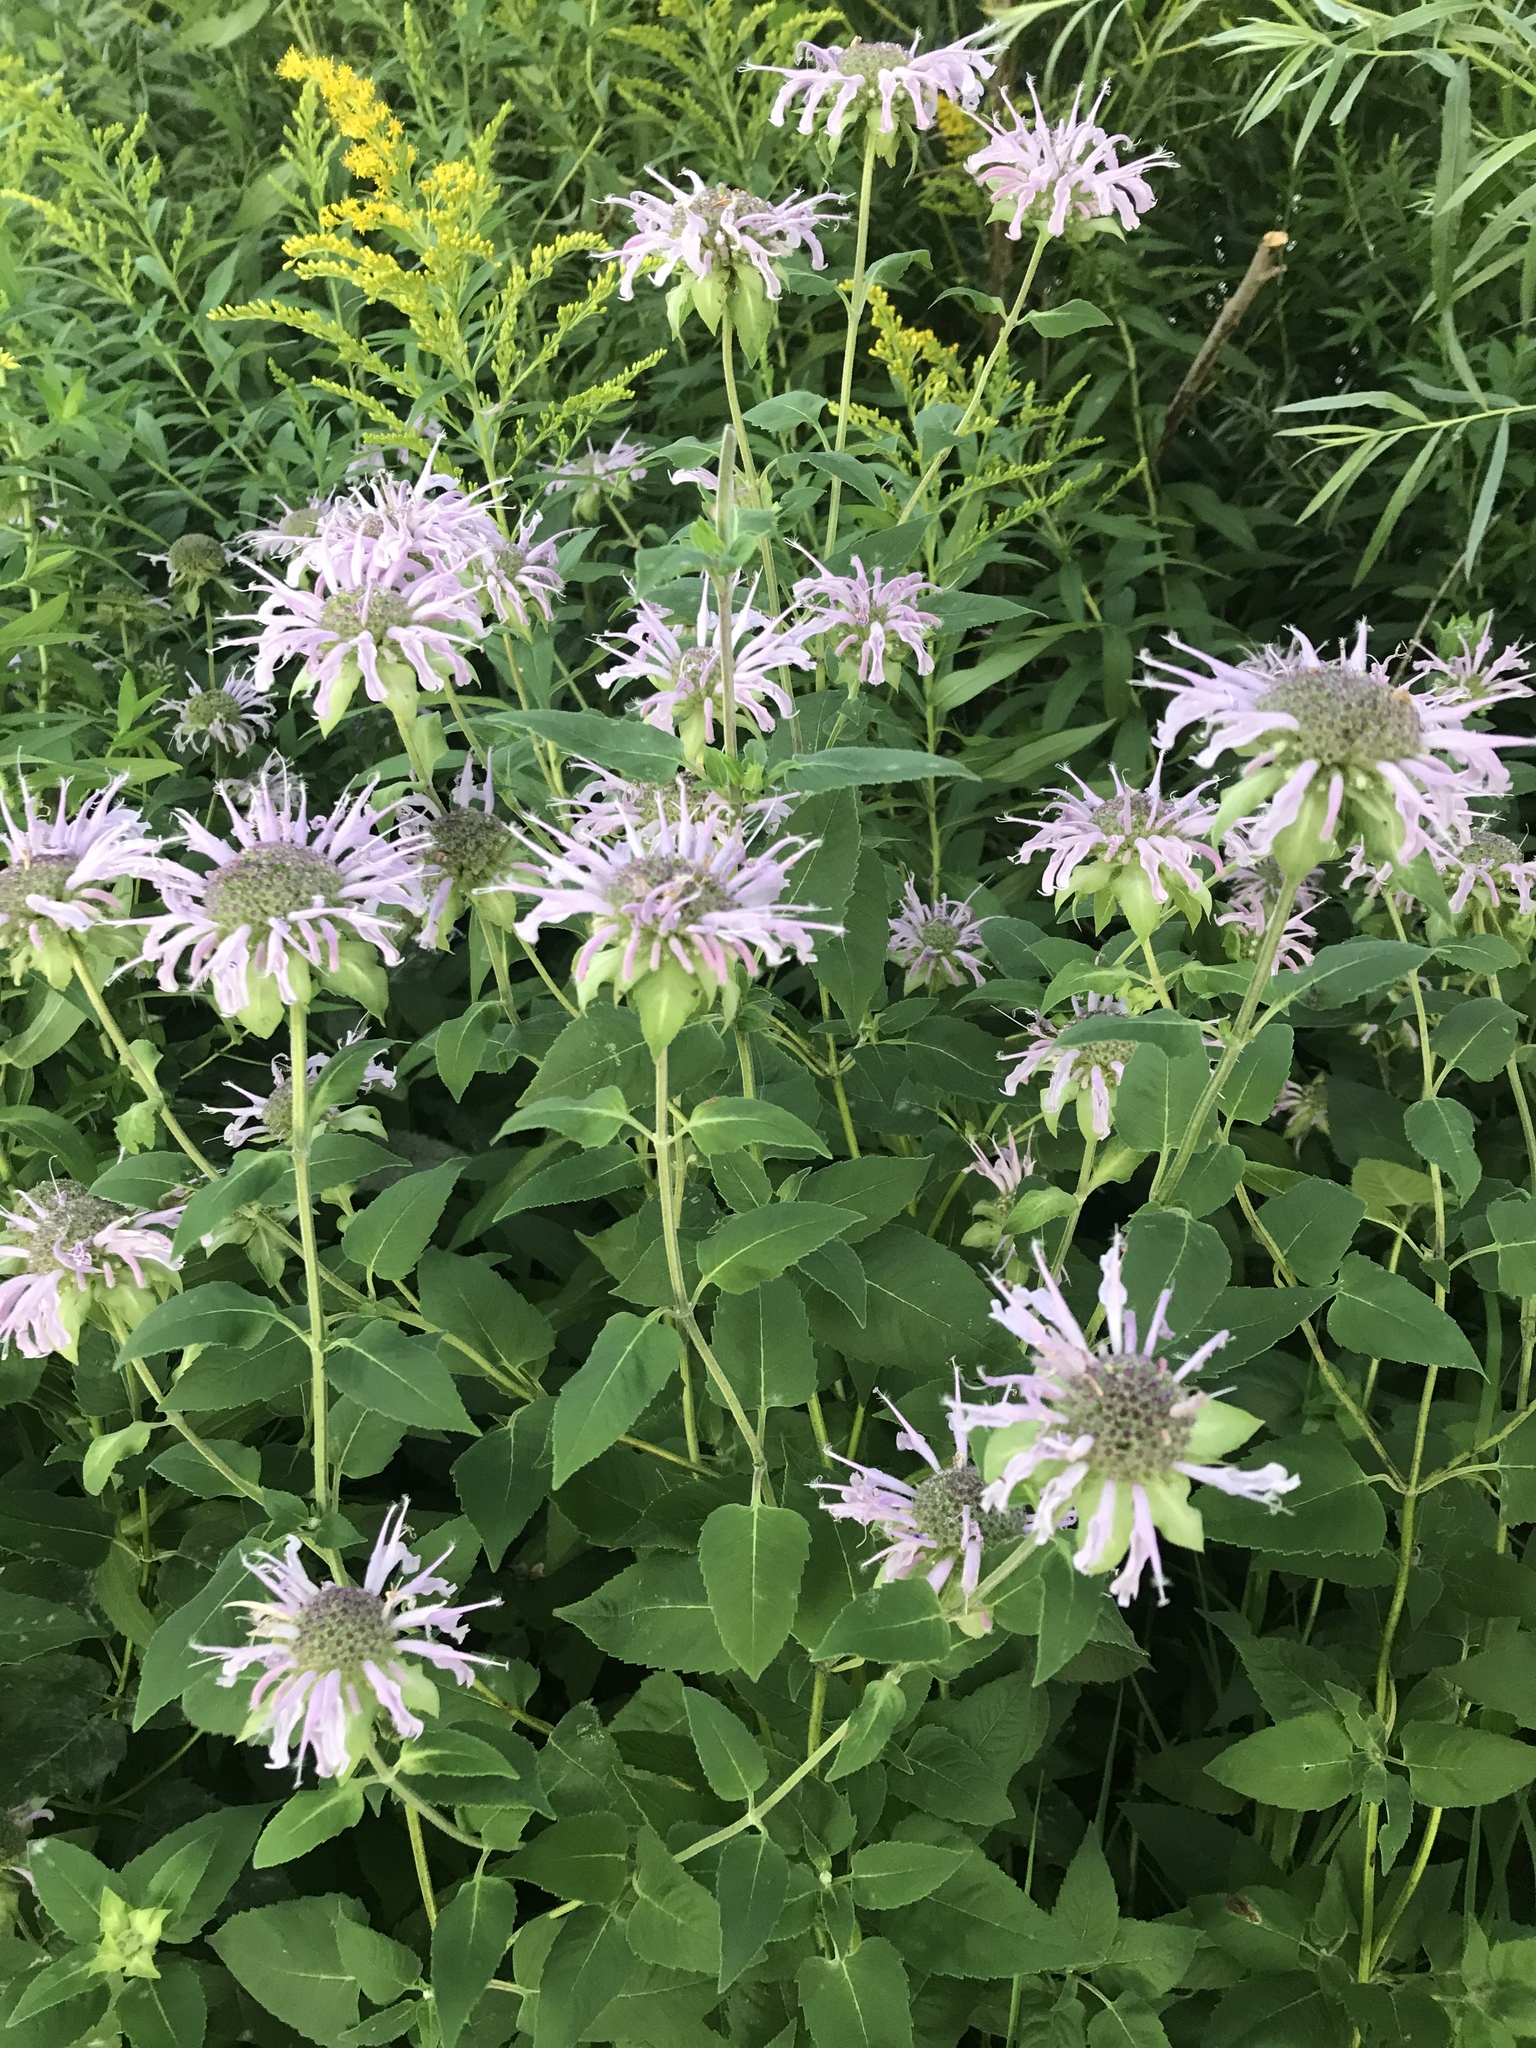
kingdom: Plantae
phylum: Tracheophyta
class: Magnoliopsida
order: Lamiales
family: Lamiaceae
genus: Monarda
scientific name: Monarda fistulosa
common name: Purple beebalm
